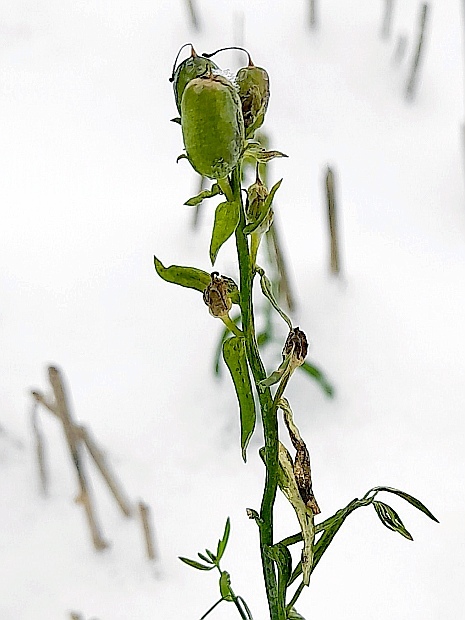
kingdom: Plantae
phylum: Tracheophyta
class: Magnoliopsida
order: Lamiales
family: Plantaginaceae
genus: Linaria
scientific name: Linaria vulgaris
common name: Butter and eggs
